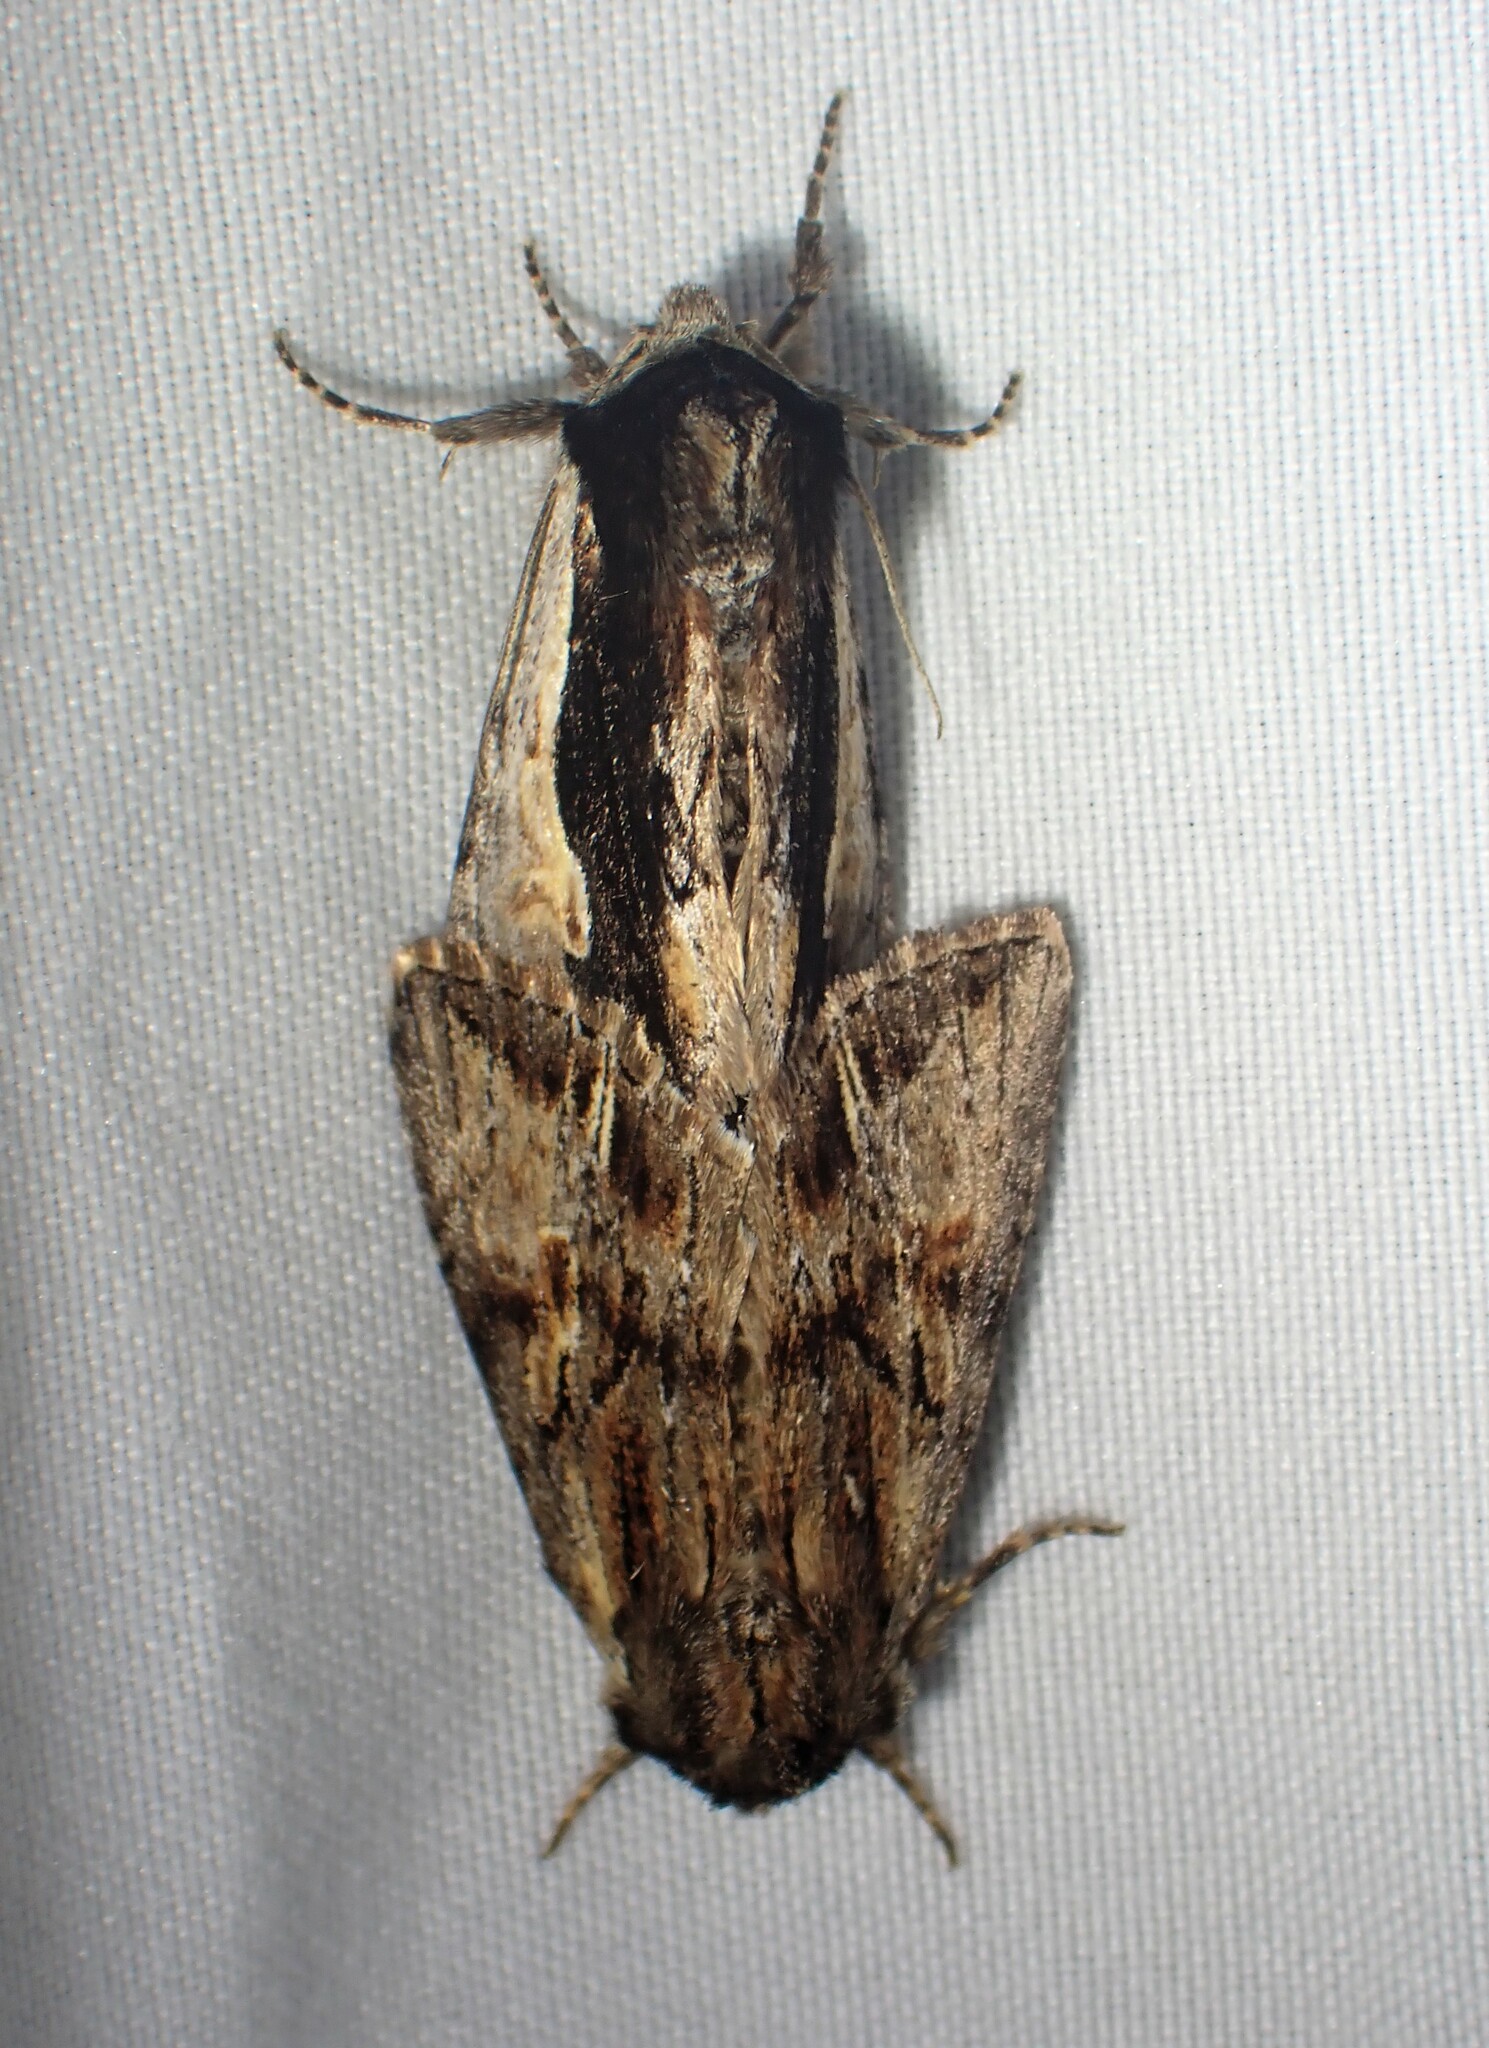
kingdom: Animalia
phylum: Arthropoda
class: Insecta
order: Lepidoptera
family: Noctuidae
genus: Achatia
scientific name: Achatia evicta
